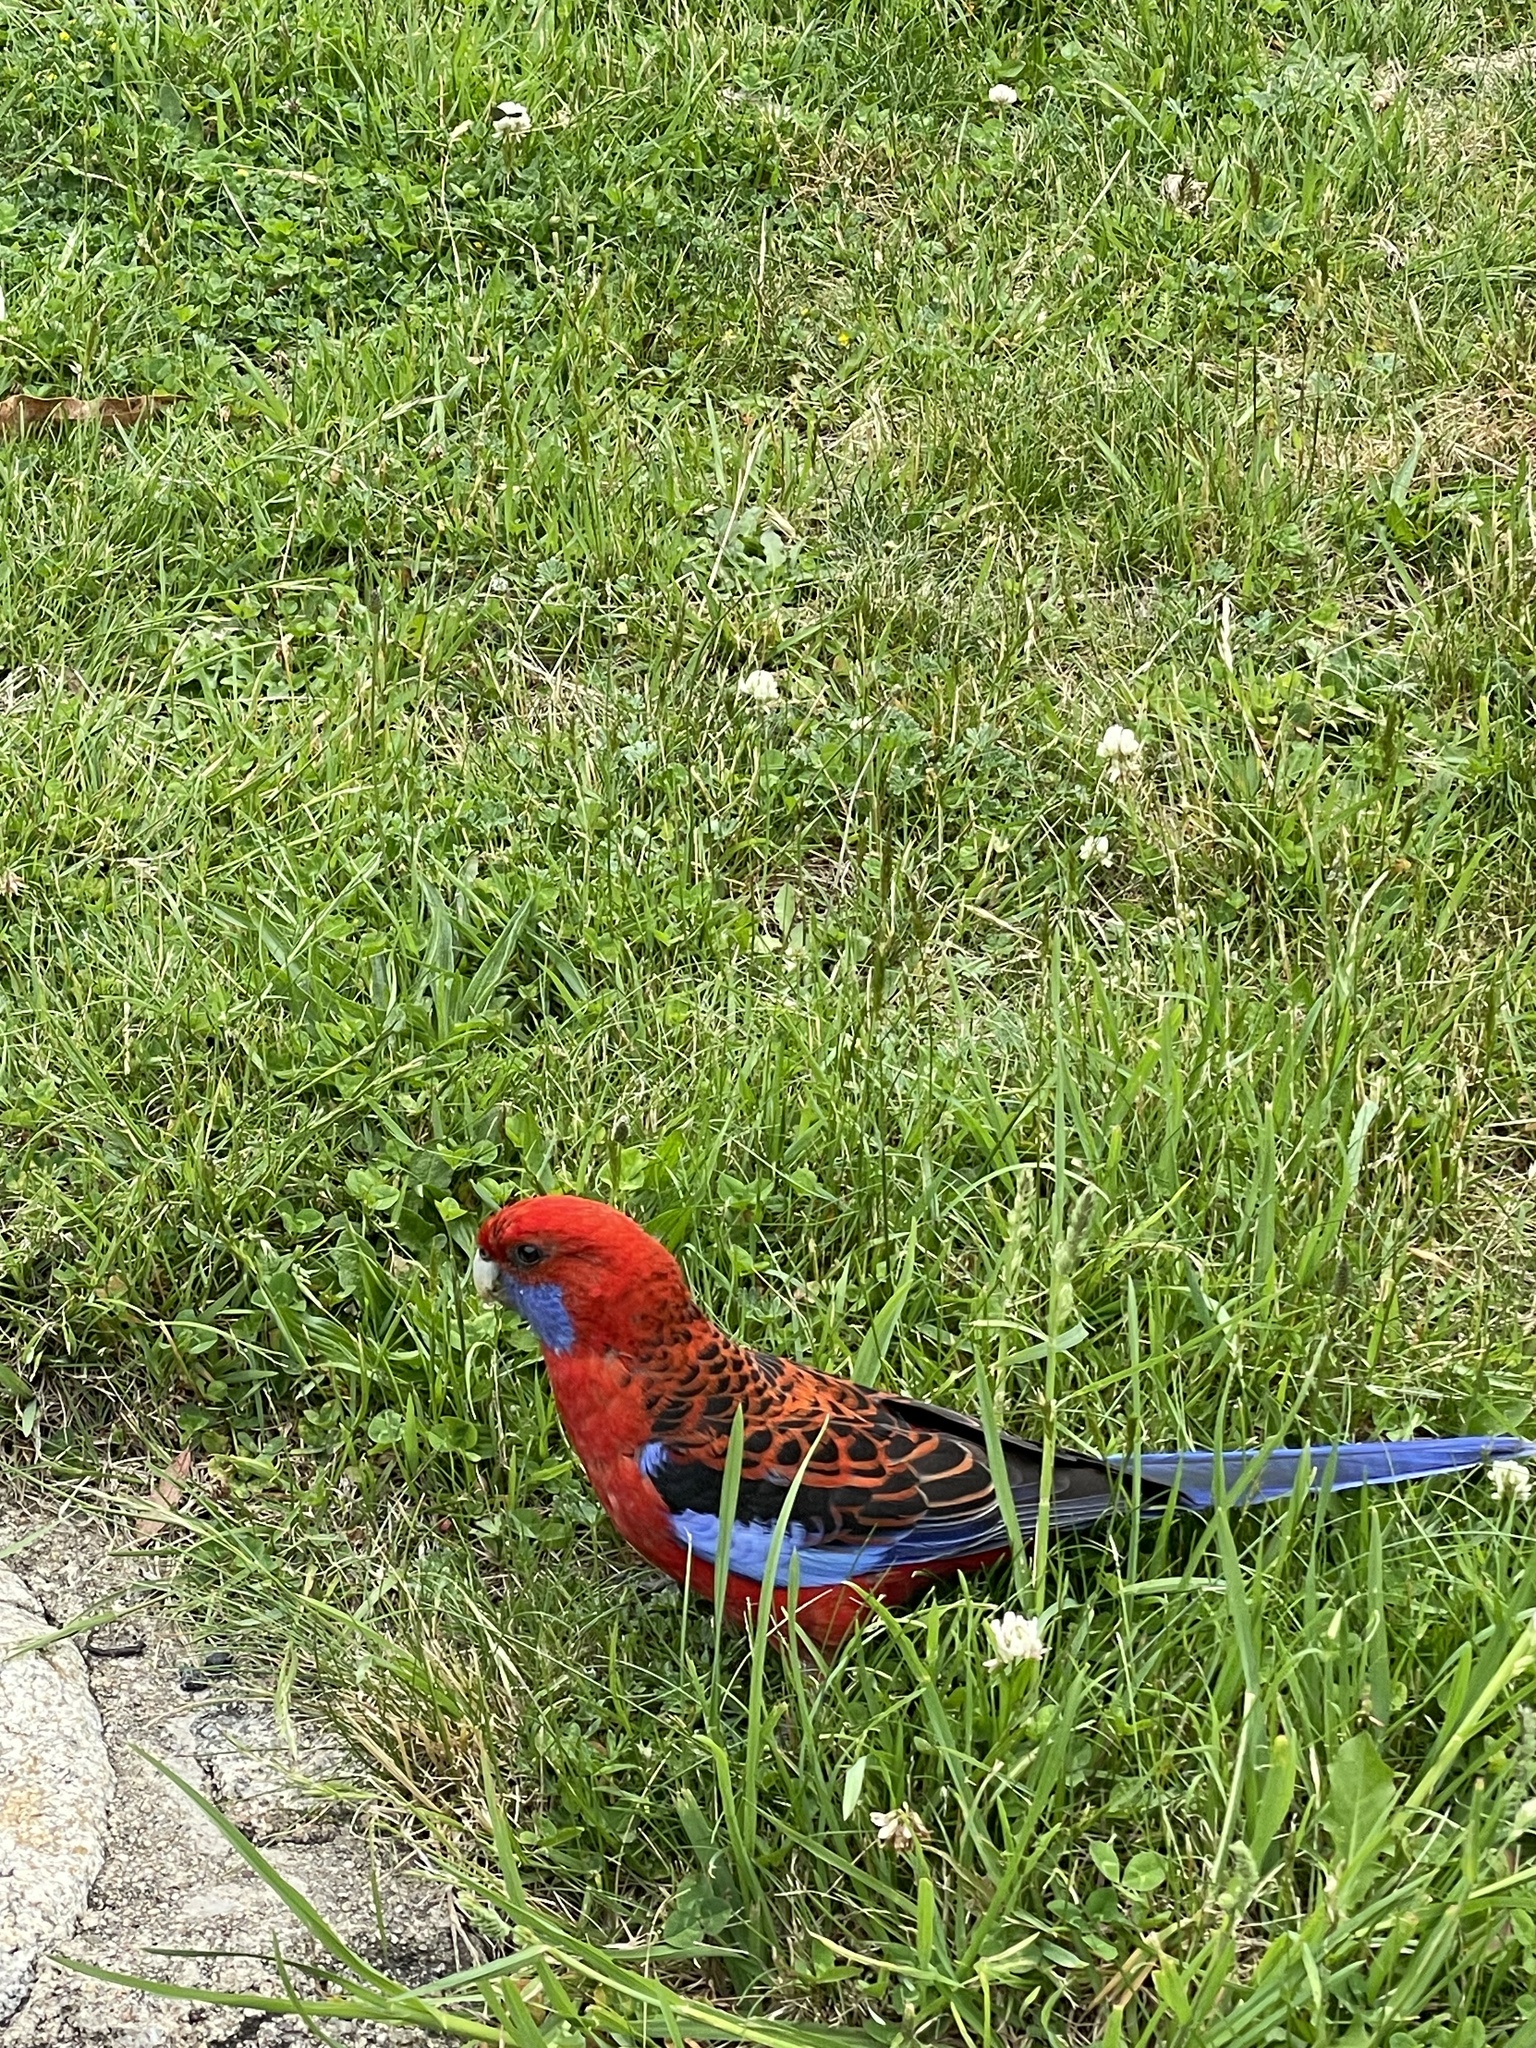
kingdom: Animalia
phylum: Chordata
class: Aves
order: Psittaciformes
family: Psittacidae
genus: Platycercus
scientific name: Platycercus elegans
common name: Crimson rosella
